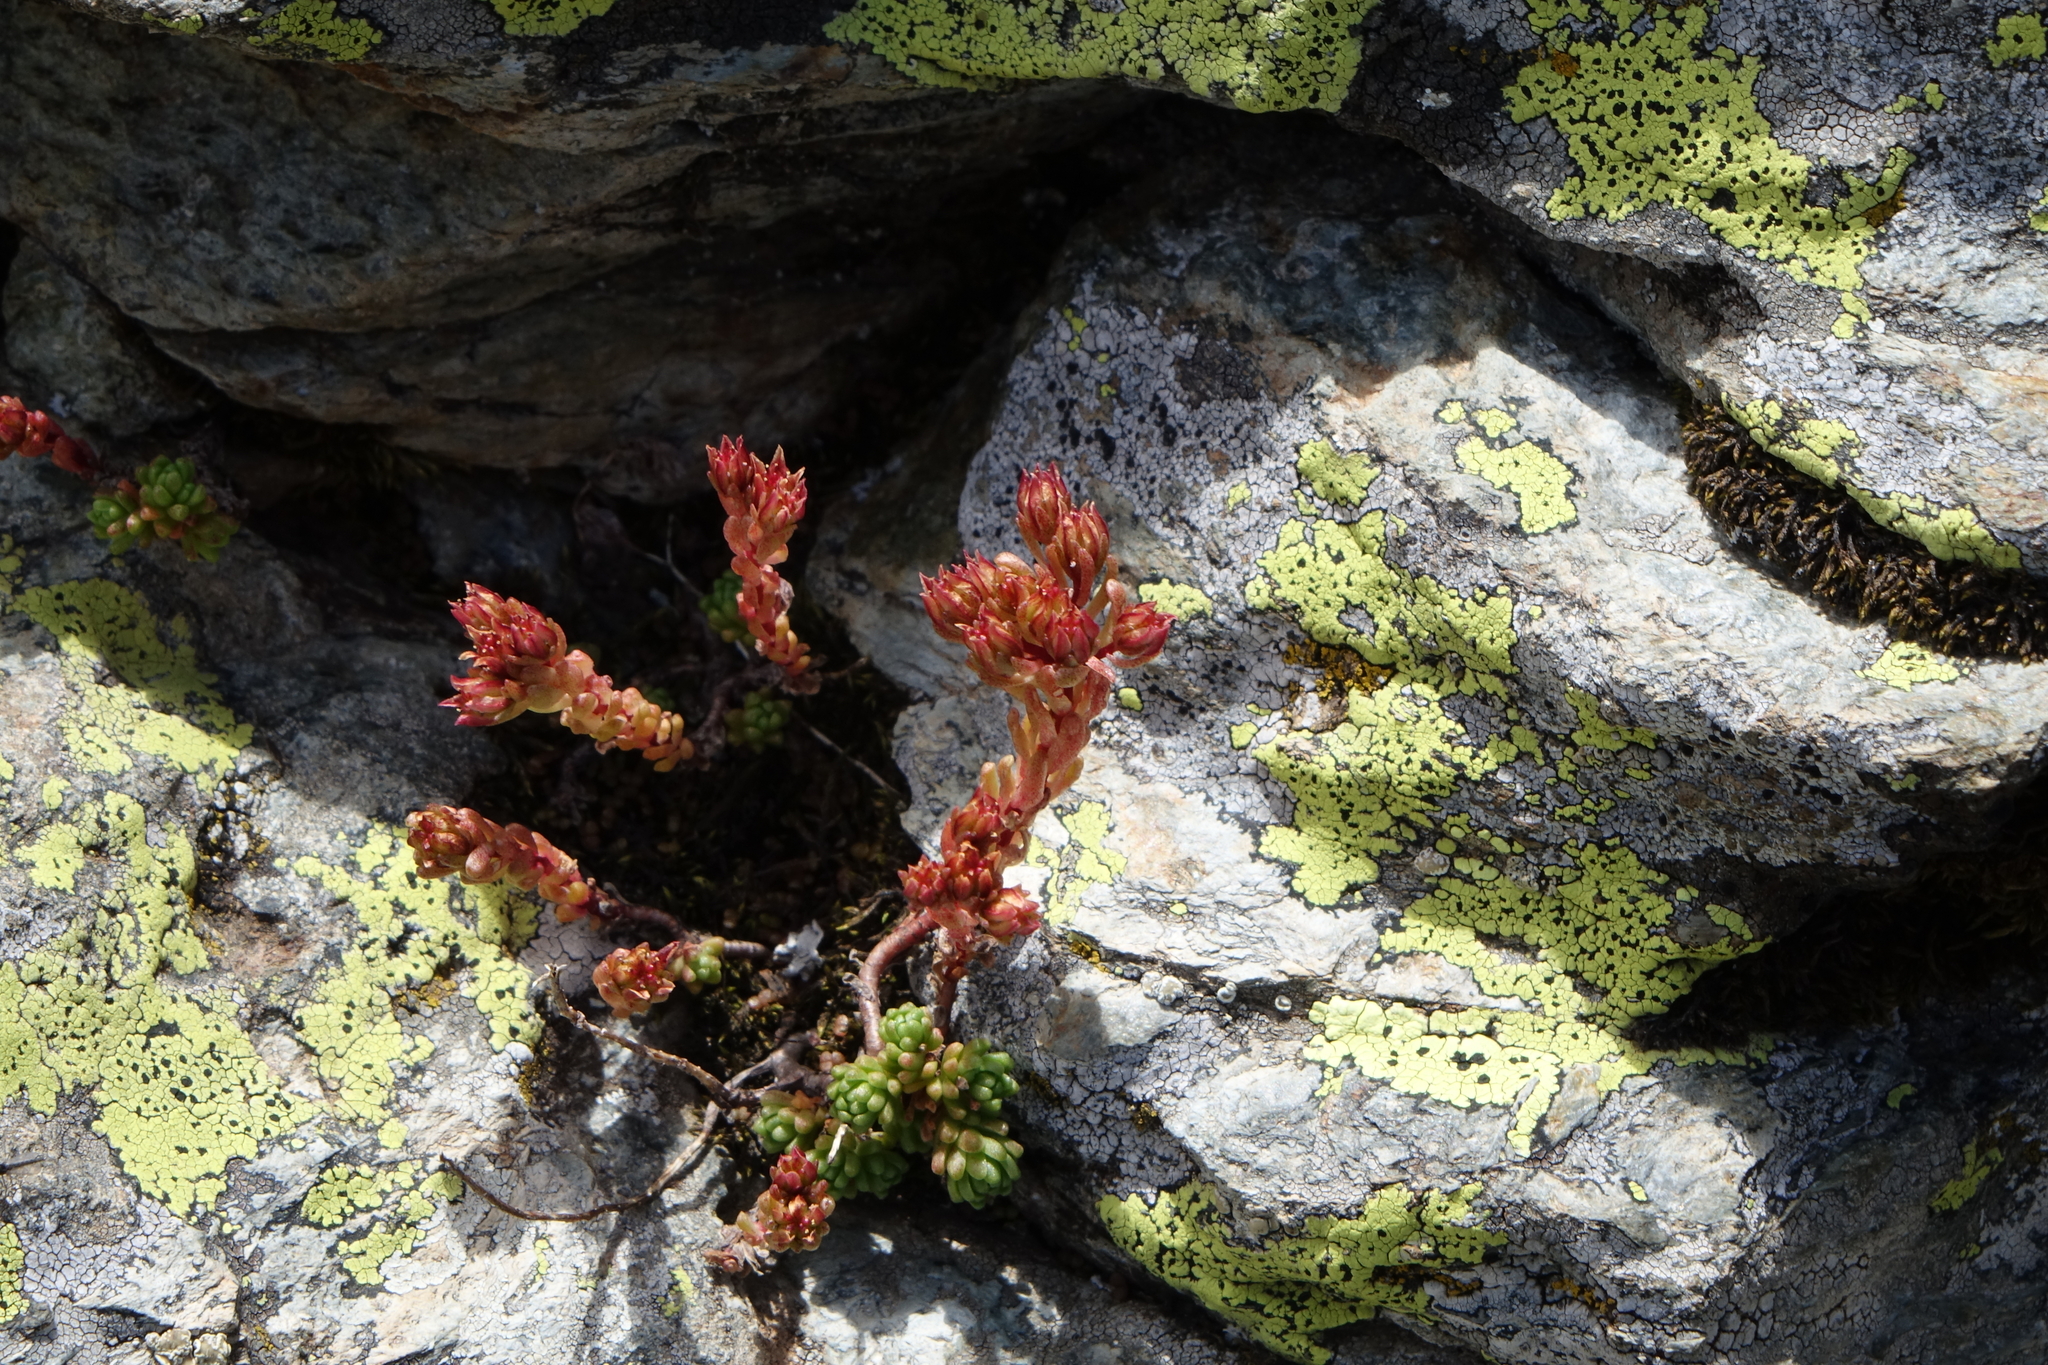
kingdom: Plantae
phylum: Tracheophyta
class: Magnoliopsida
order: Saxifragales
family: Crassulaceae
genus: Sedum
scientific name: Sedum tenellum
